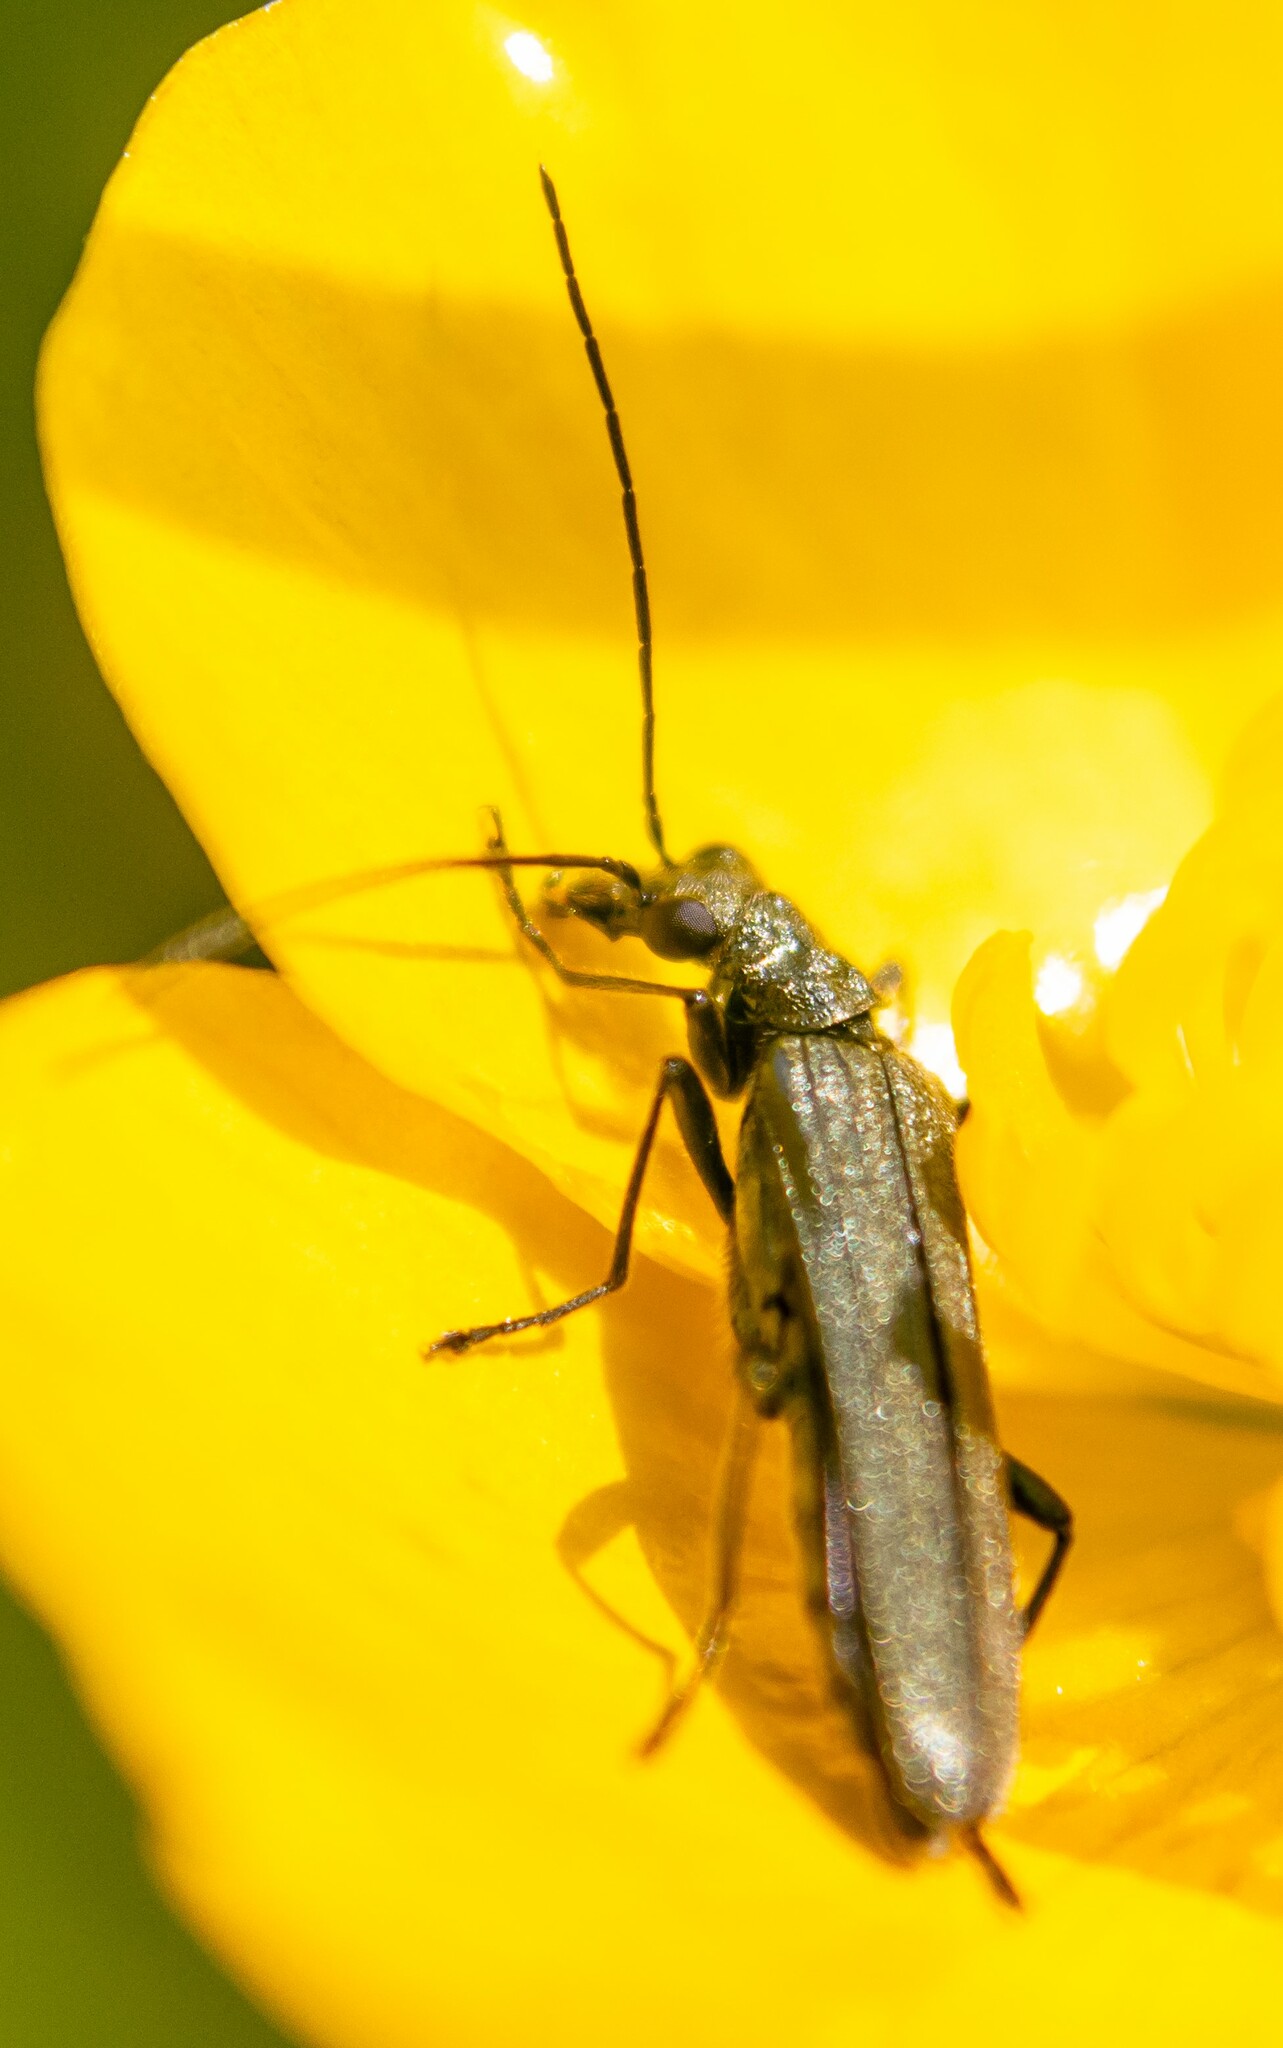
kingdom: Animalia
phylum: Arthropoda
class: Insecta
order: Coleoptera
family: Oedemeridae
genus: Oedemera
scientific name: Oedemera lurida
